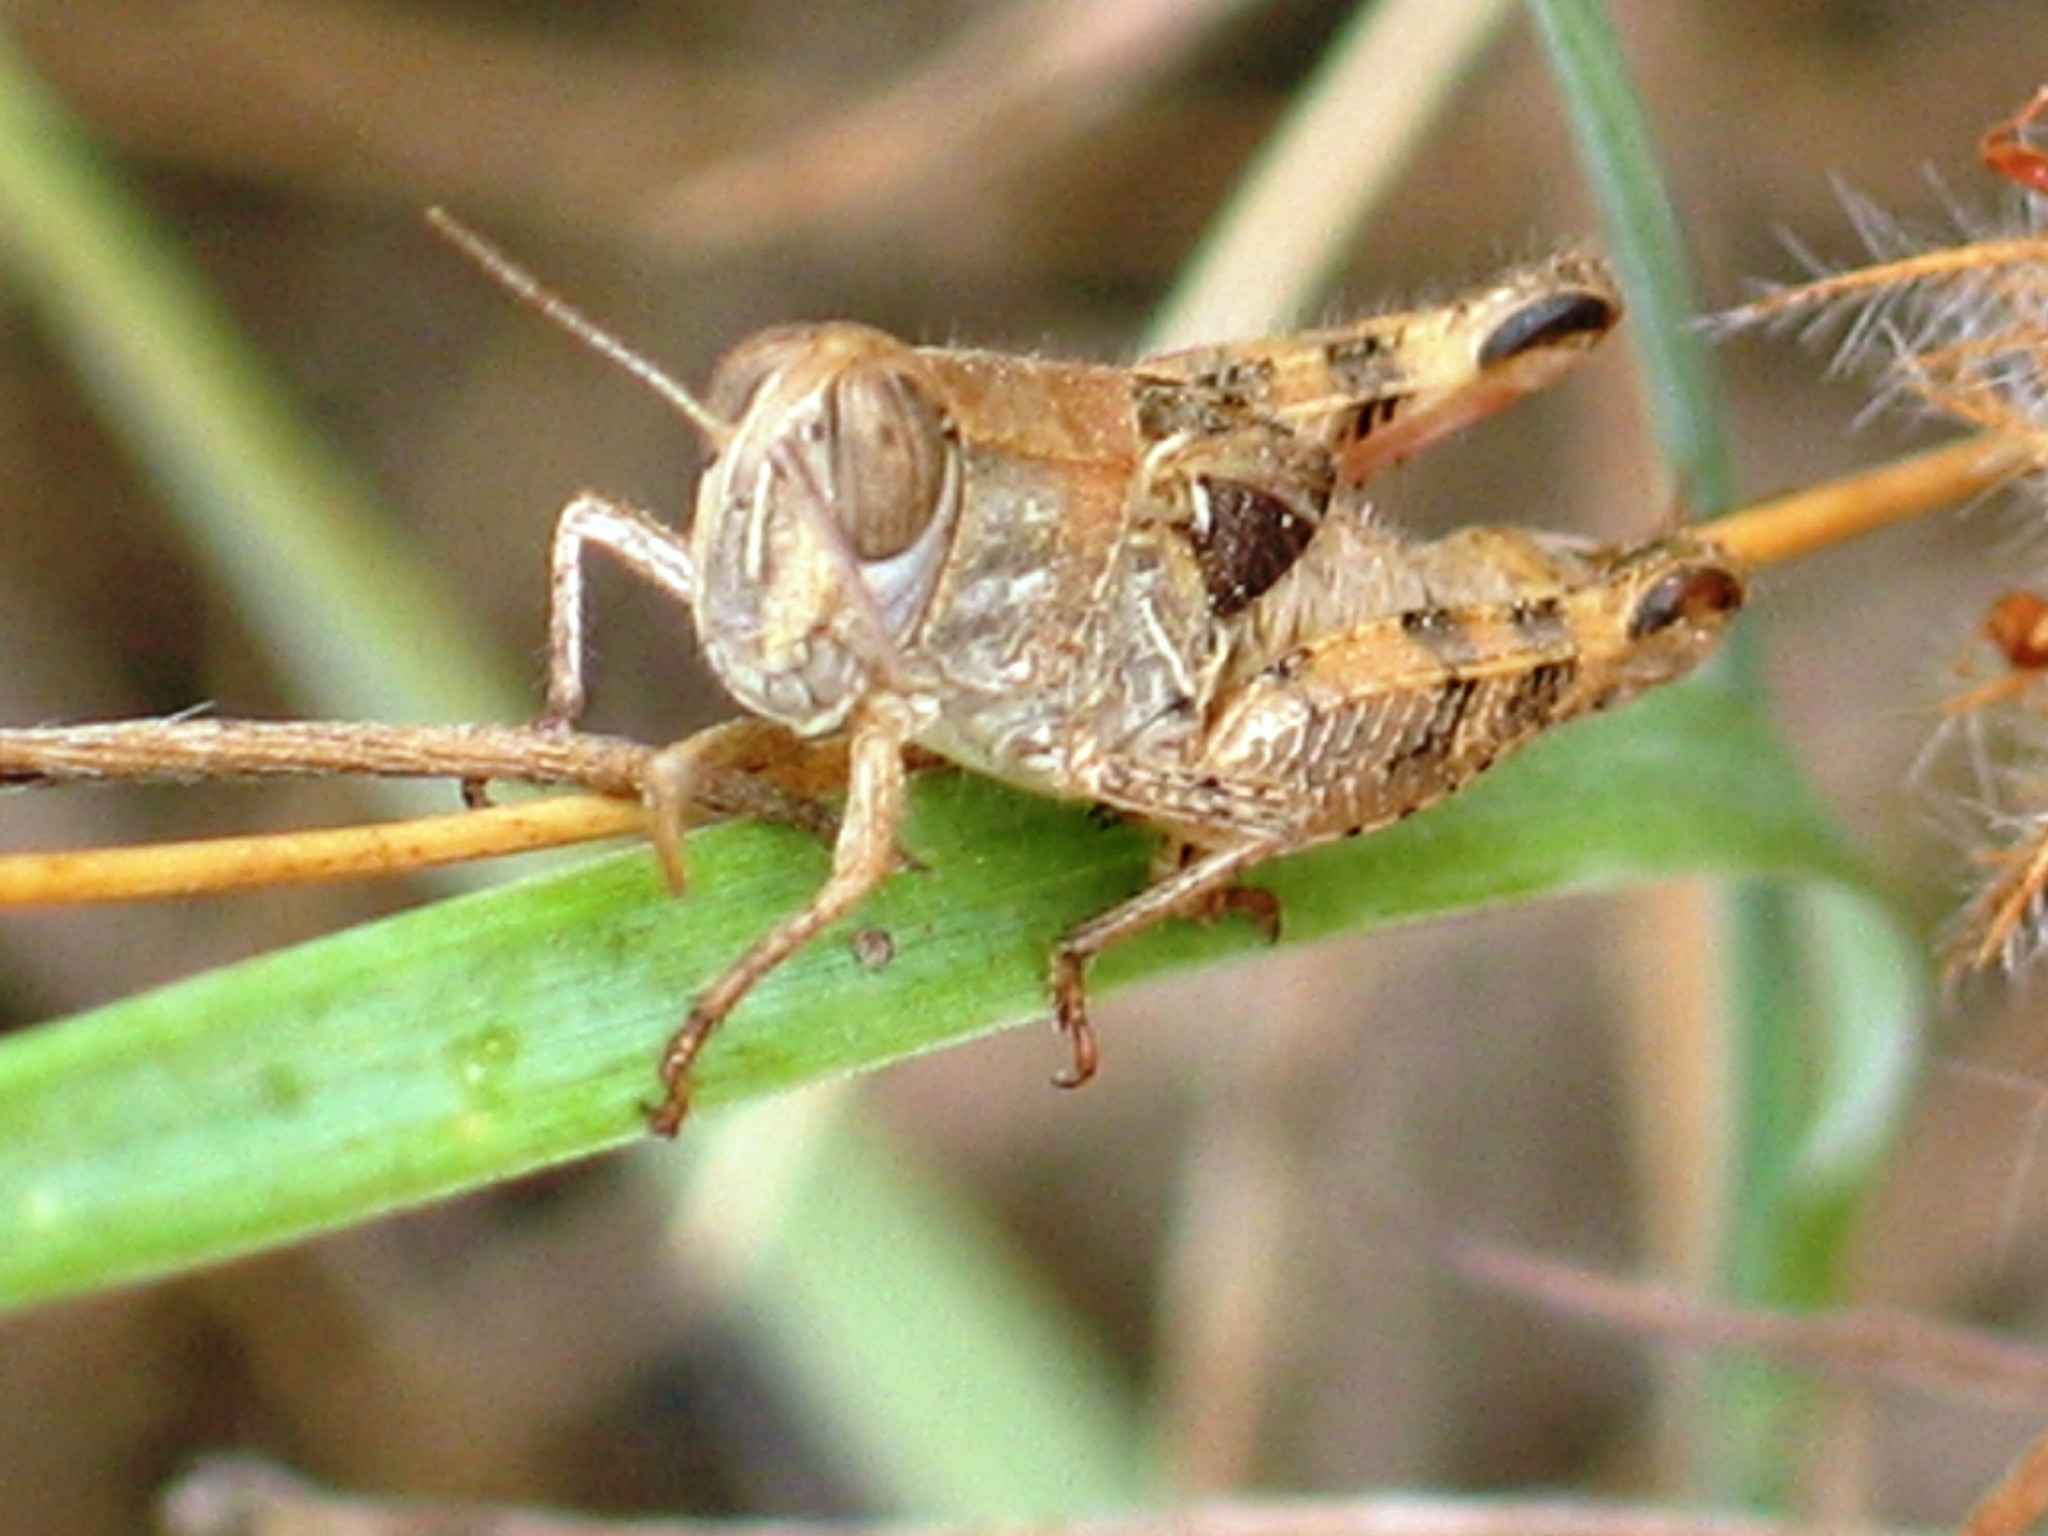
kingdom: Animalia
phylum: Arthropoda
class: Insecta
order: Orthoptera
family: Acrididae
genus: Calliptamus
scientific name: Calliptamus italicus
